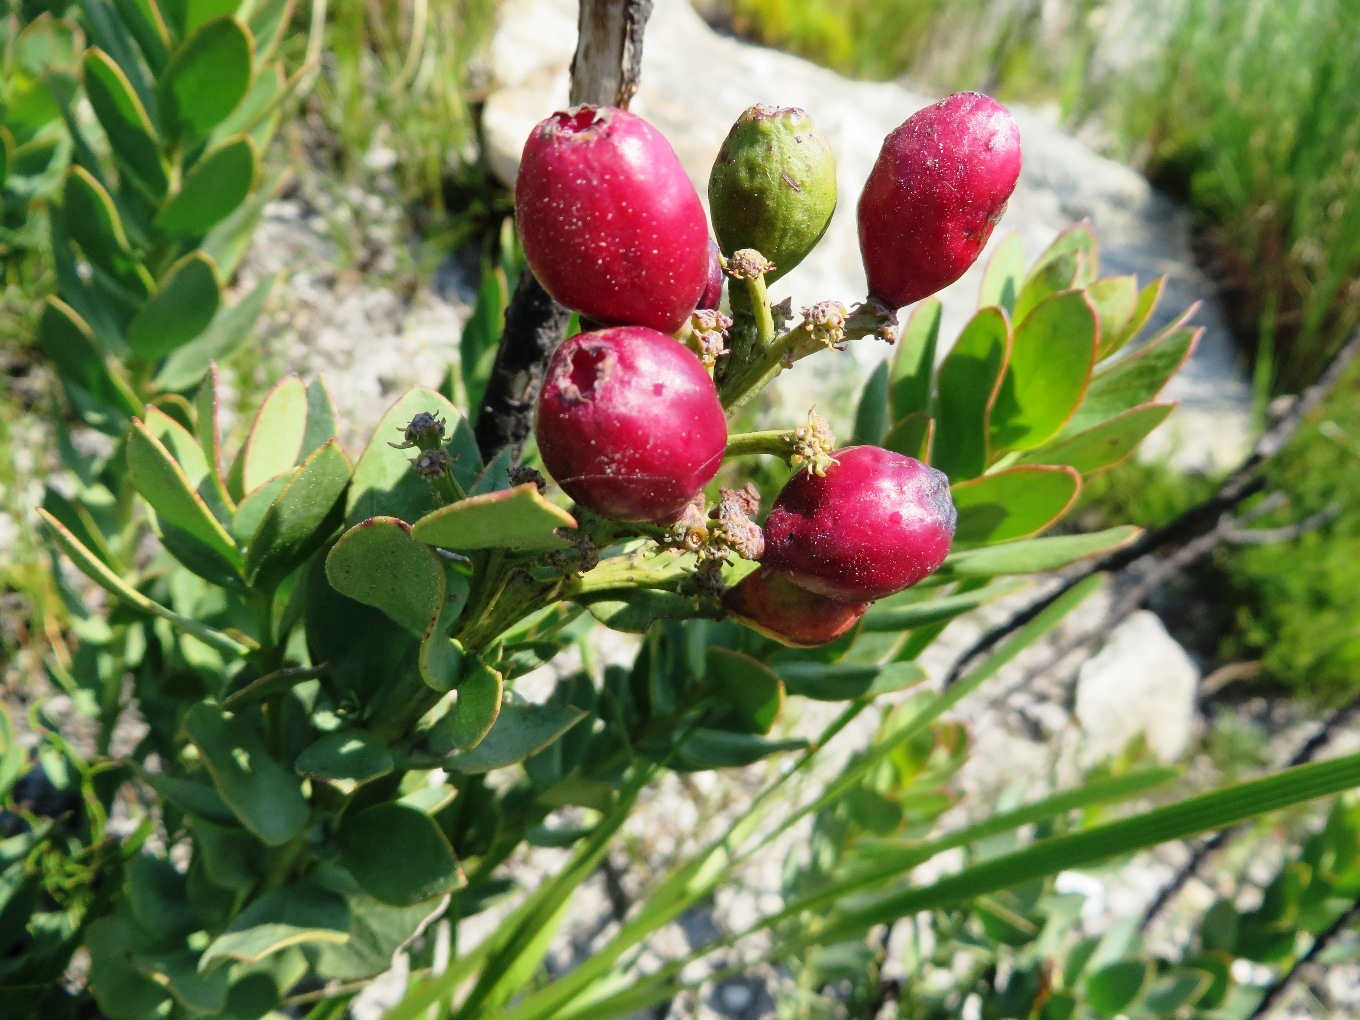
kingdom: Plantae
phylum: Tracheophyta
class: Magnoliopsida
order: Santalales
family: Santalaceae
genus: Osyris
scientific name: Osyris speciosa
